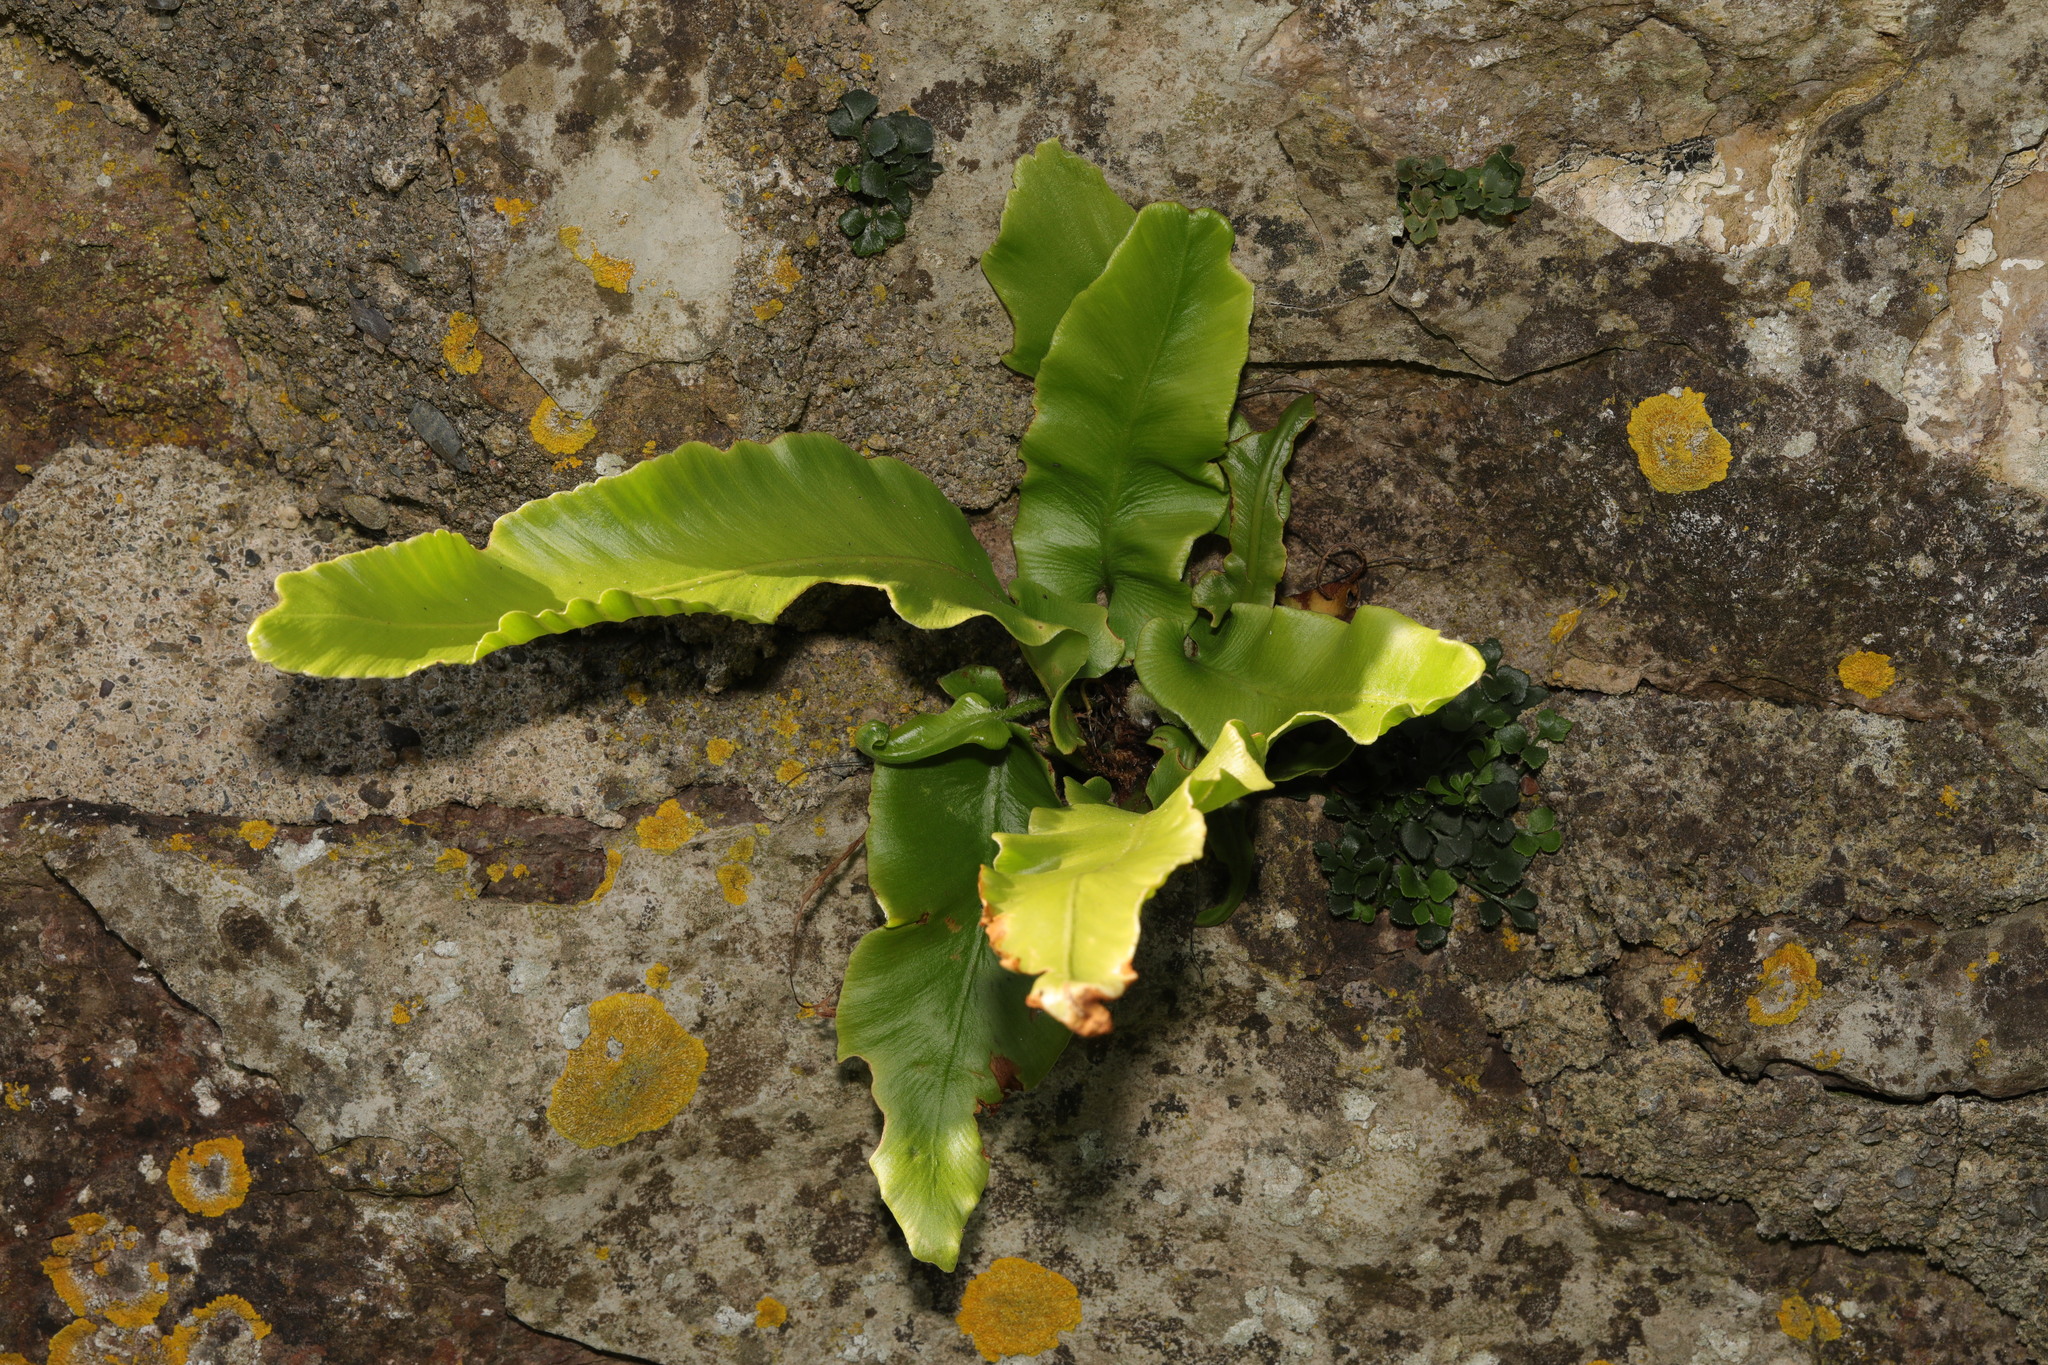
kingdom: Plantae
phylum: Tracheophyta
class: Polypodiopsida
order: Polypodiales
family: Aspleniaceae
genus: Asplenium
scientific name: Asplenium scolopendrium
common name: Hart's-tongue fern
